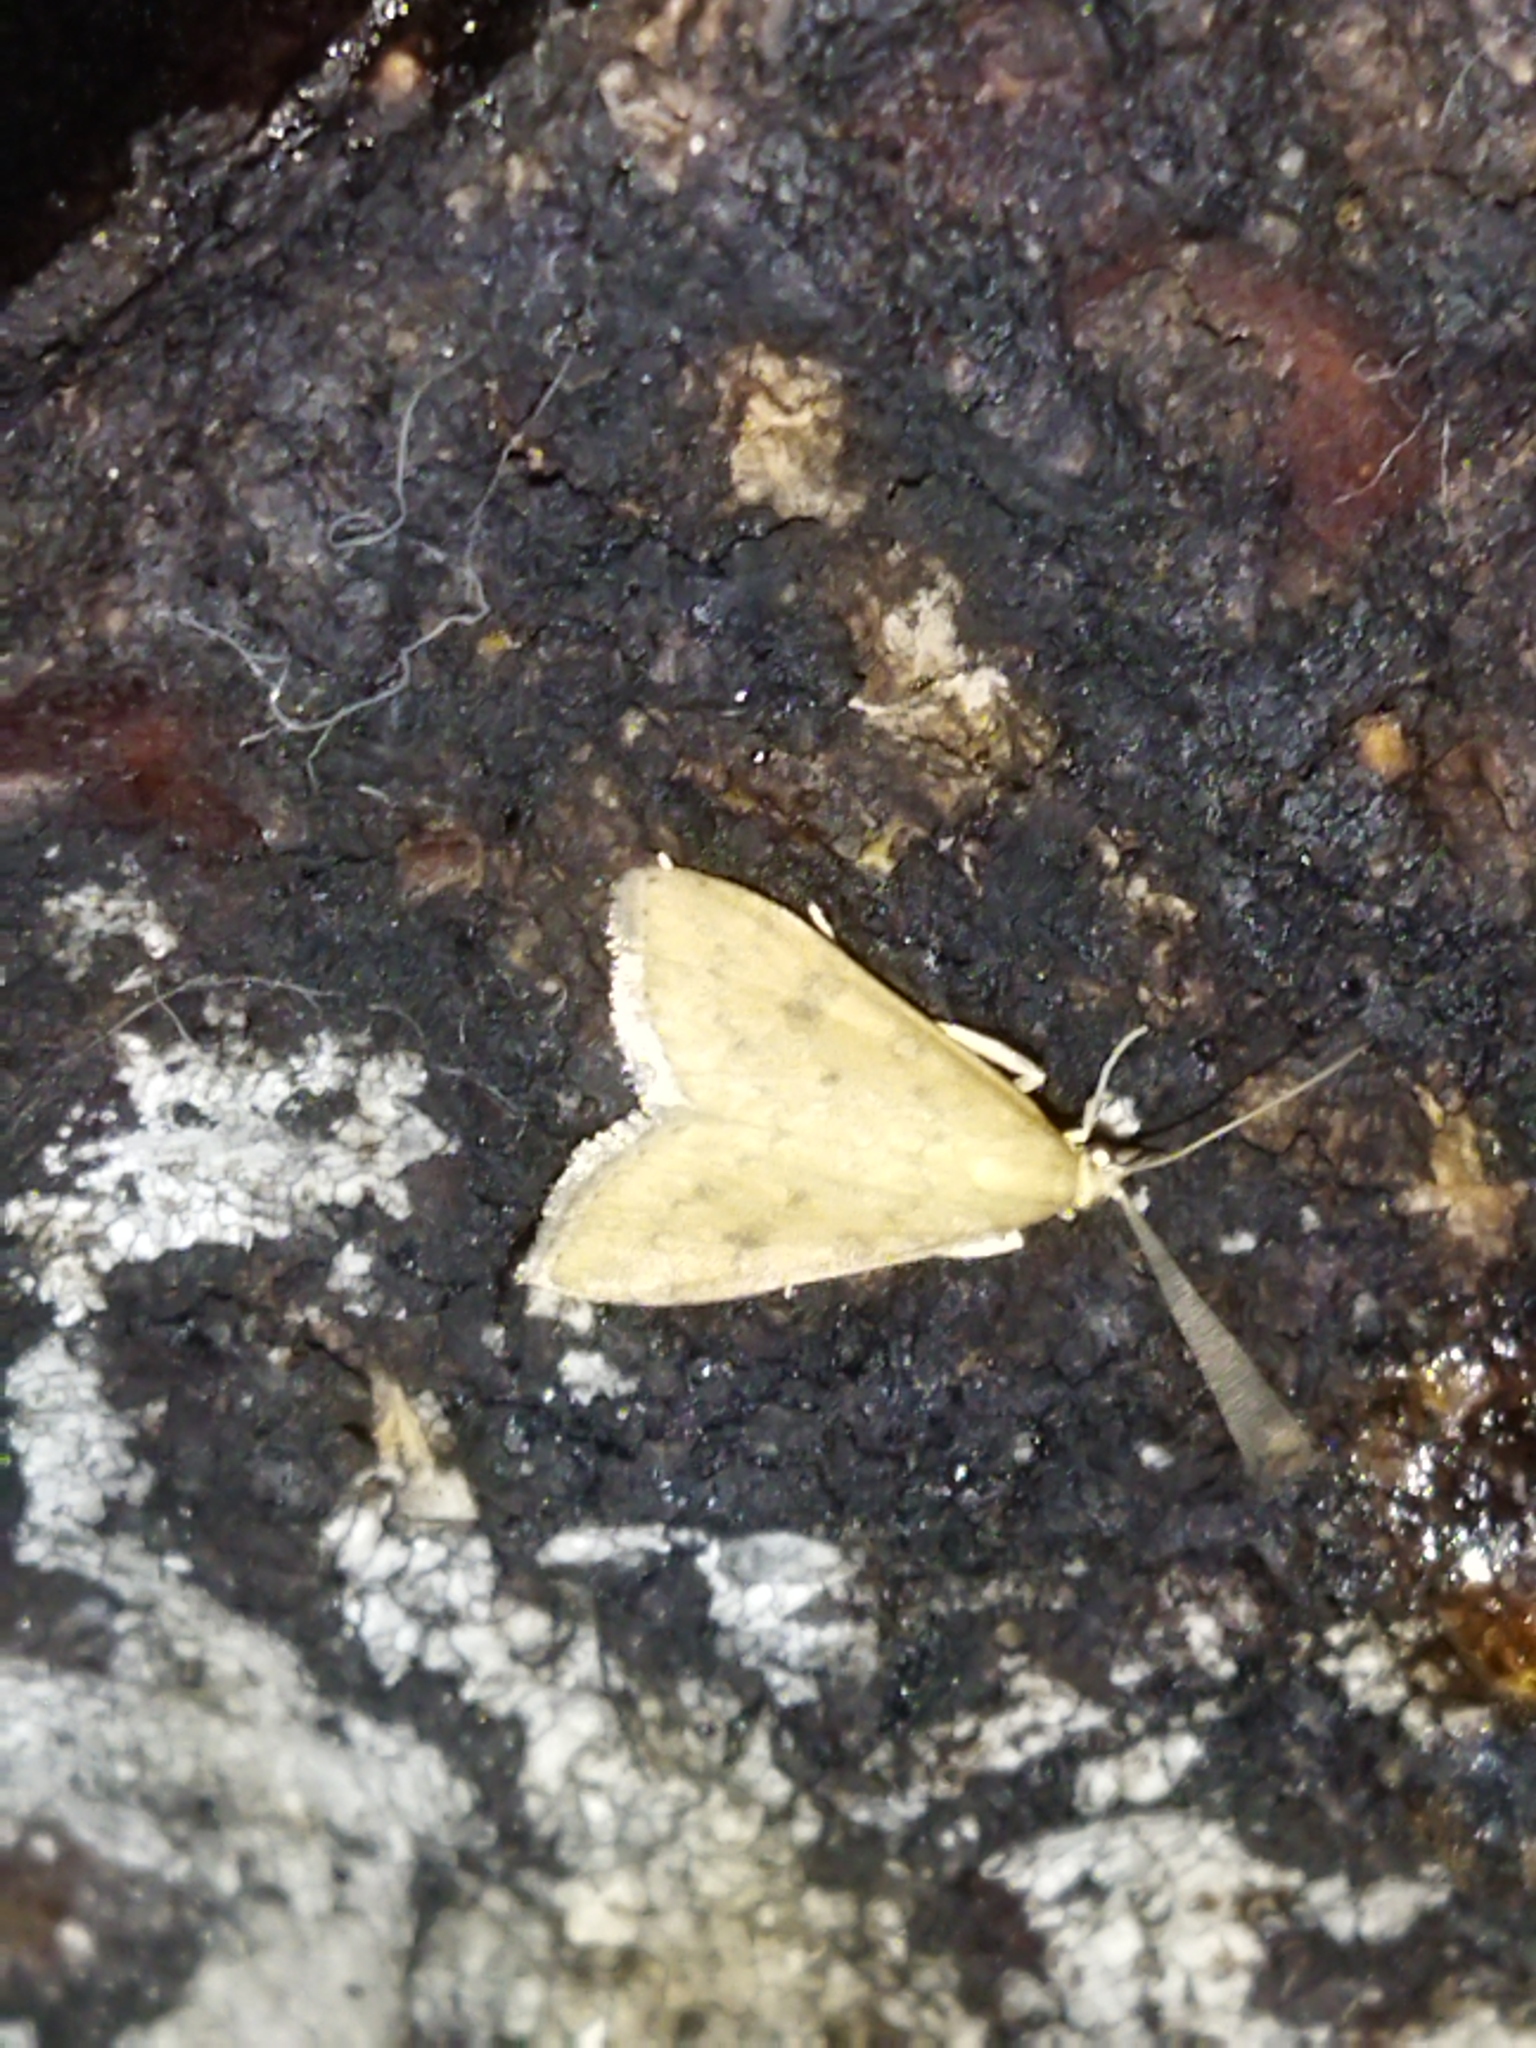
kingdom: Animalia
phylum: Arthropoda
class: Insecta
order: Lepidoptera
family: Crambidae
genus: Udea
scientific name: Udea ferrugalis
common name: Rusty dot
